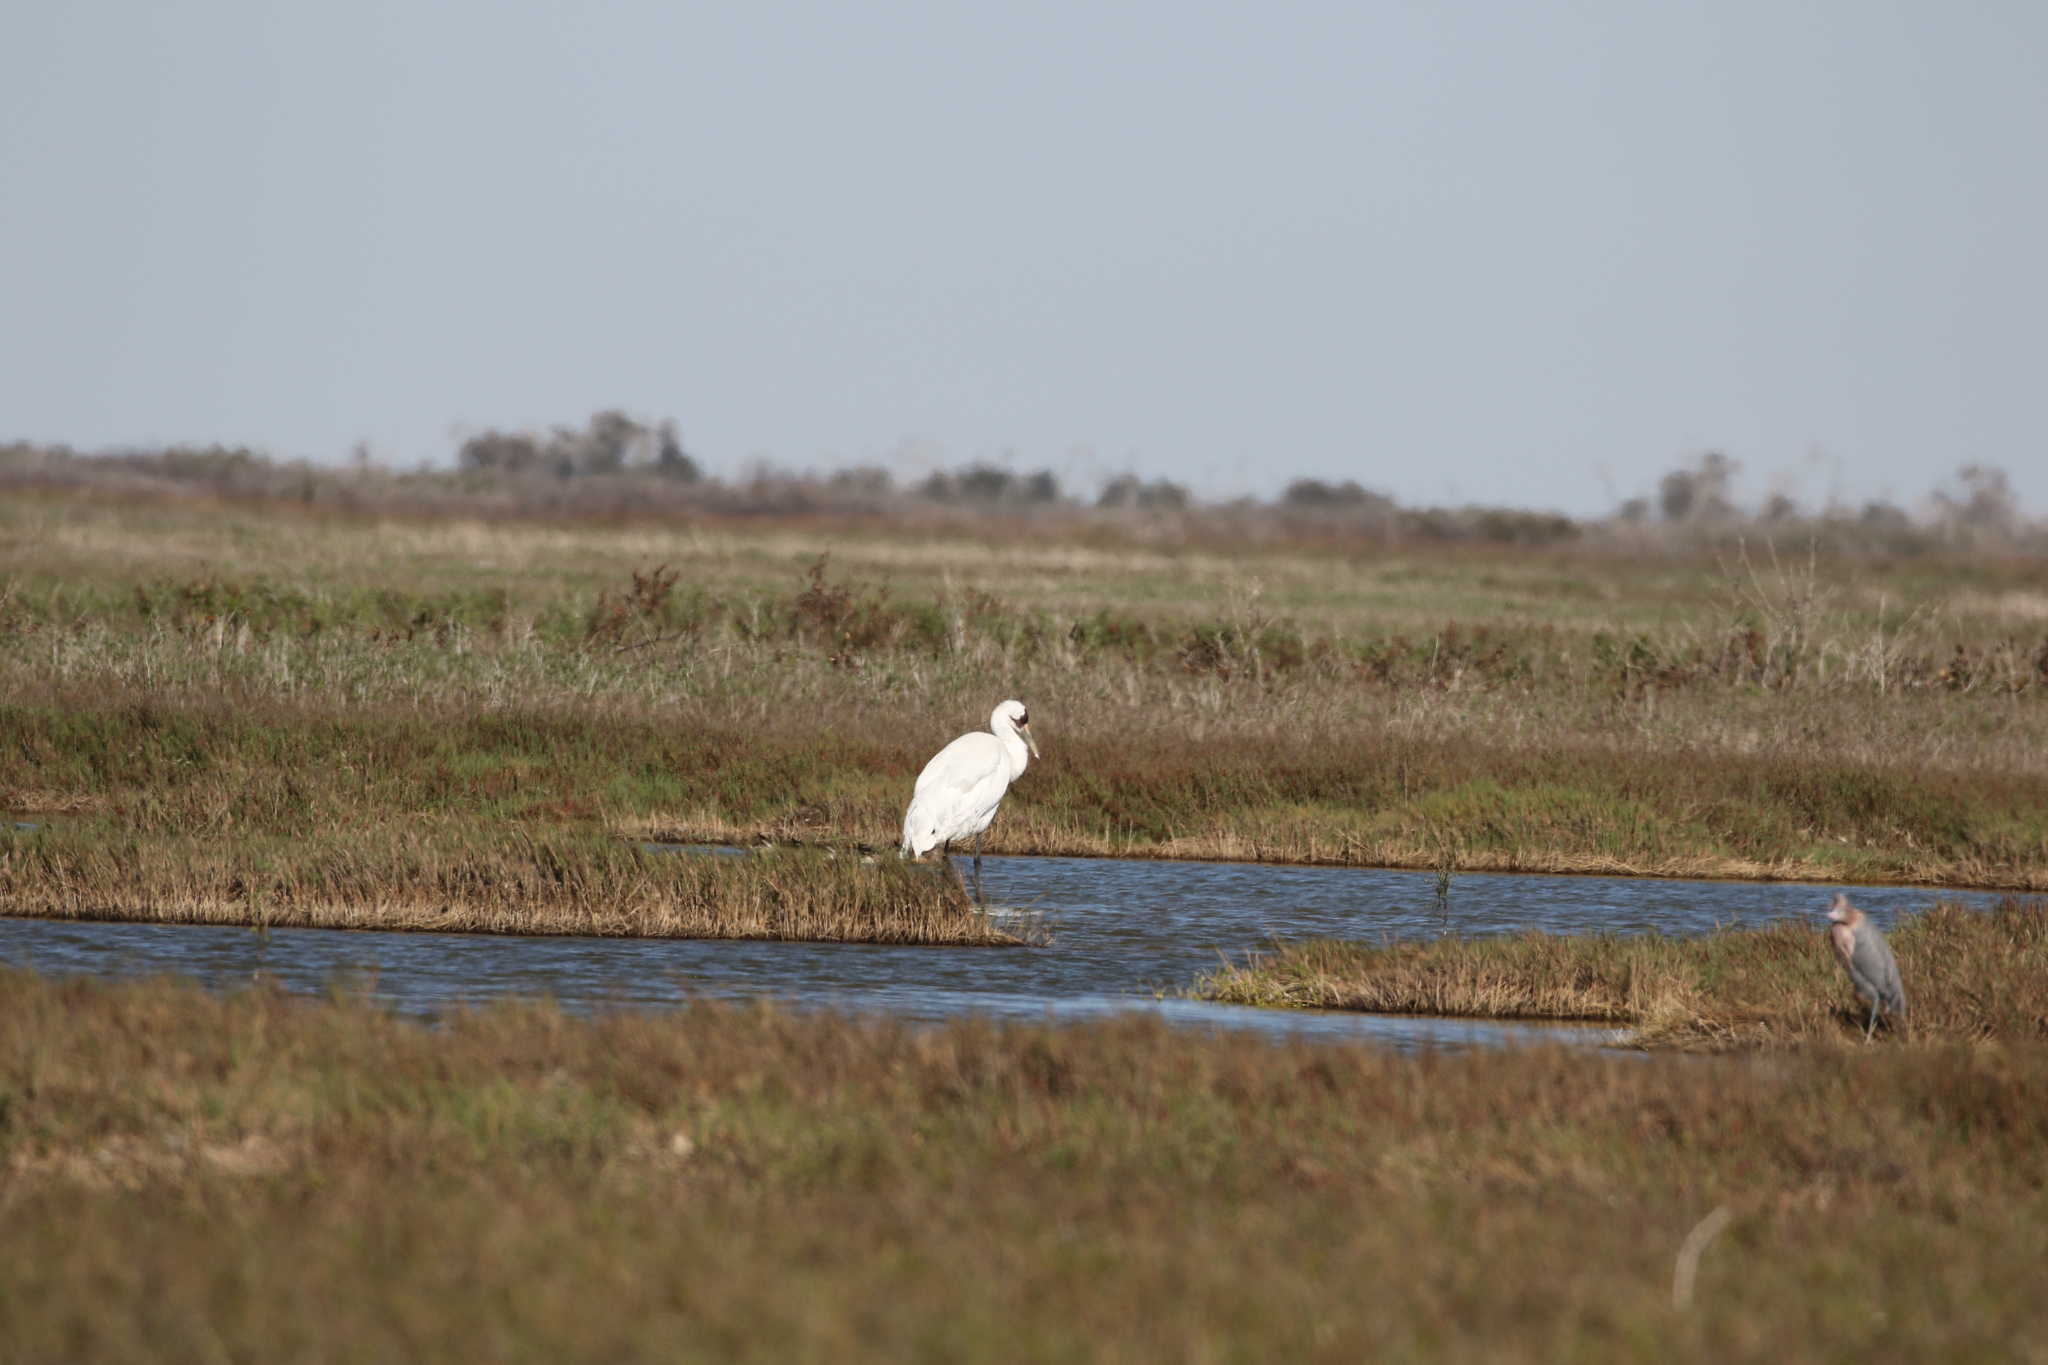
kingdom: Animalia
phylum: Chordata
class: Aves
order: Gruiformes
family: Gruidae
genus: Grus
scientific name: Grus americana
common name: Whooping crane
